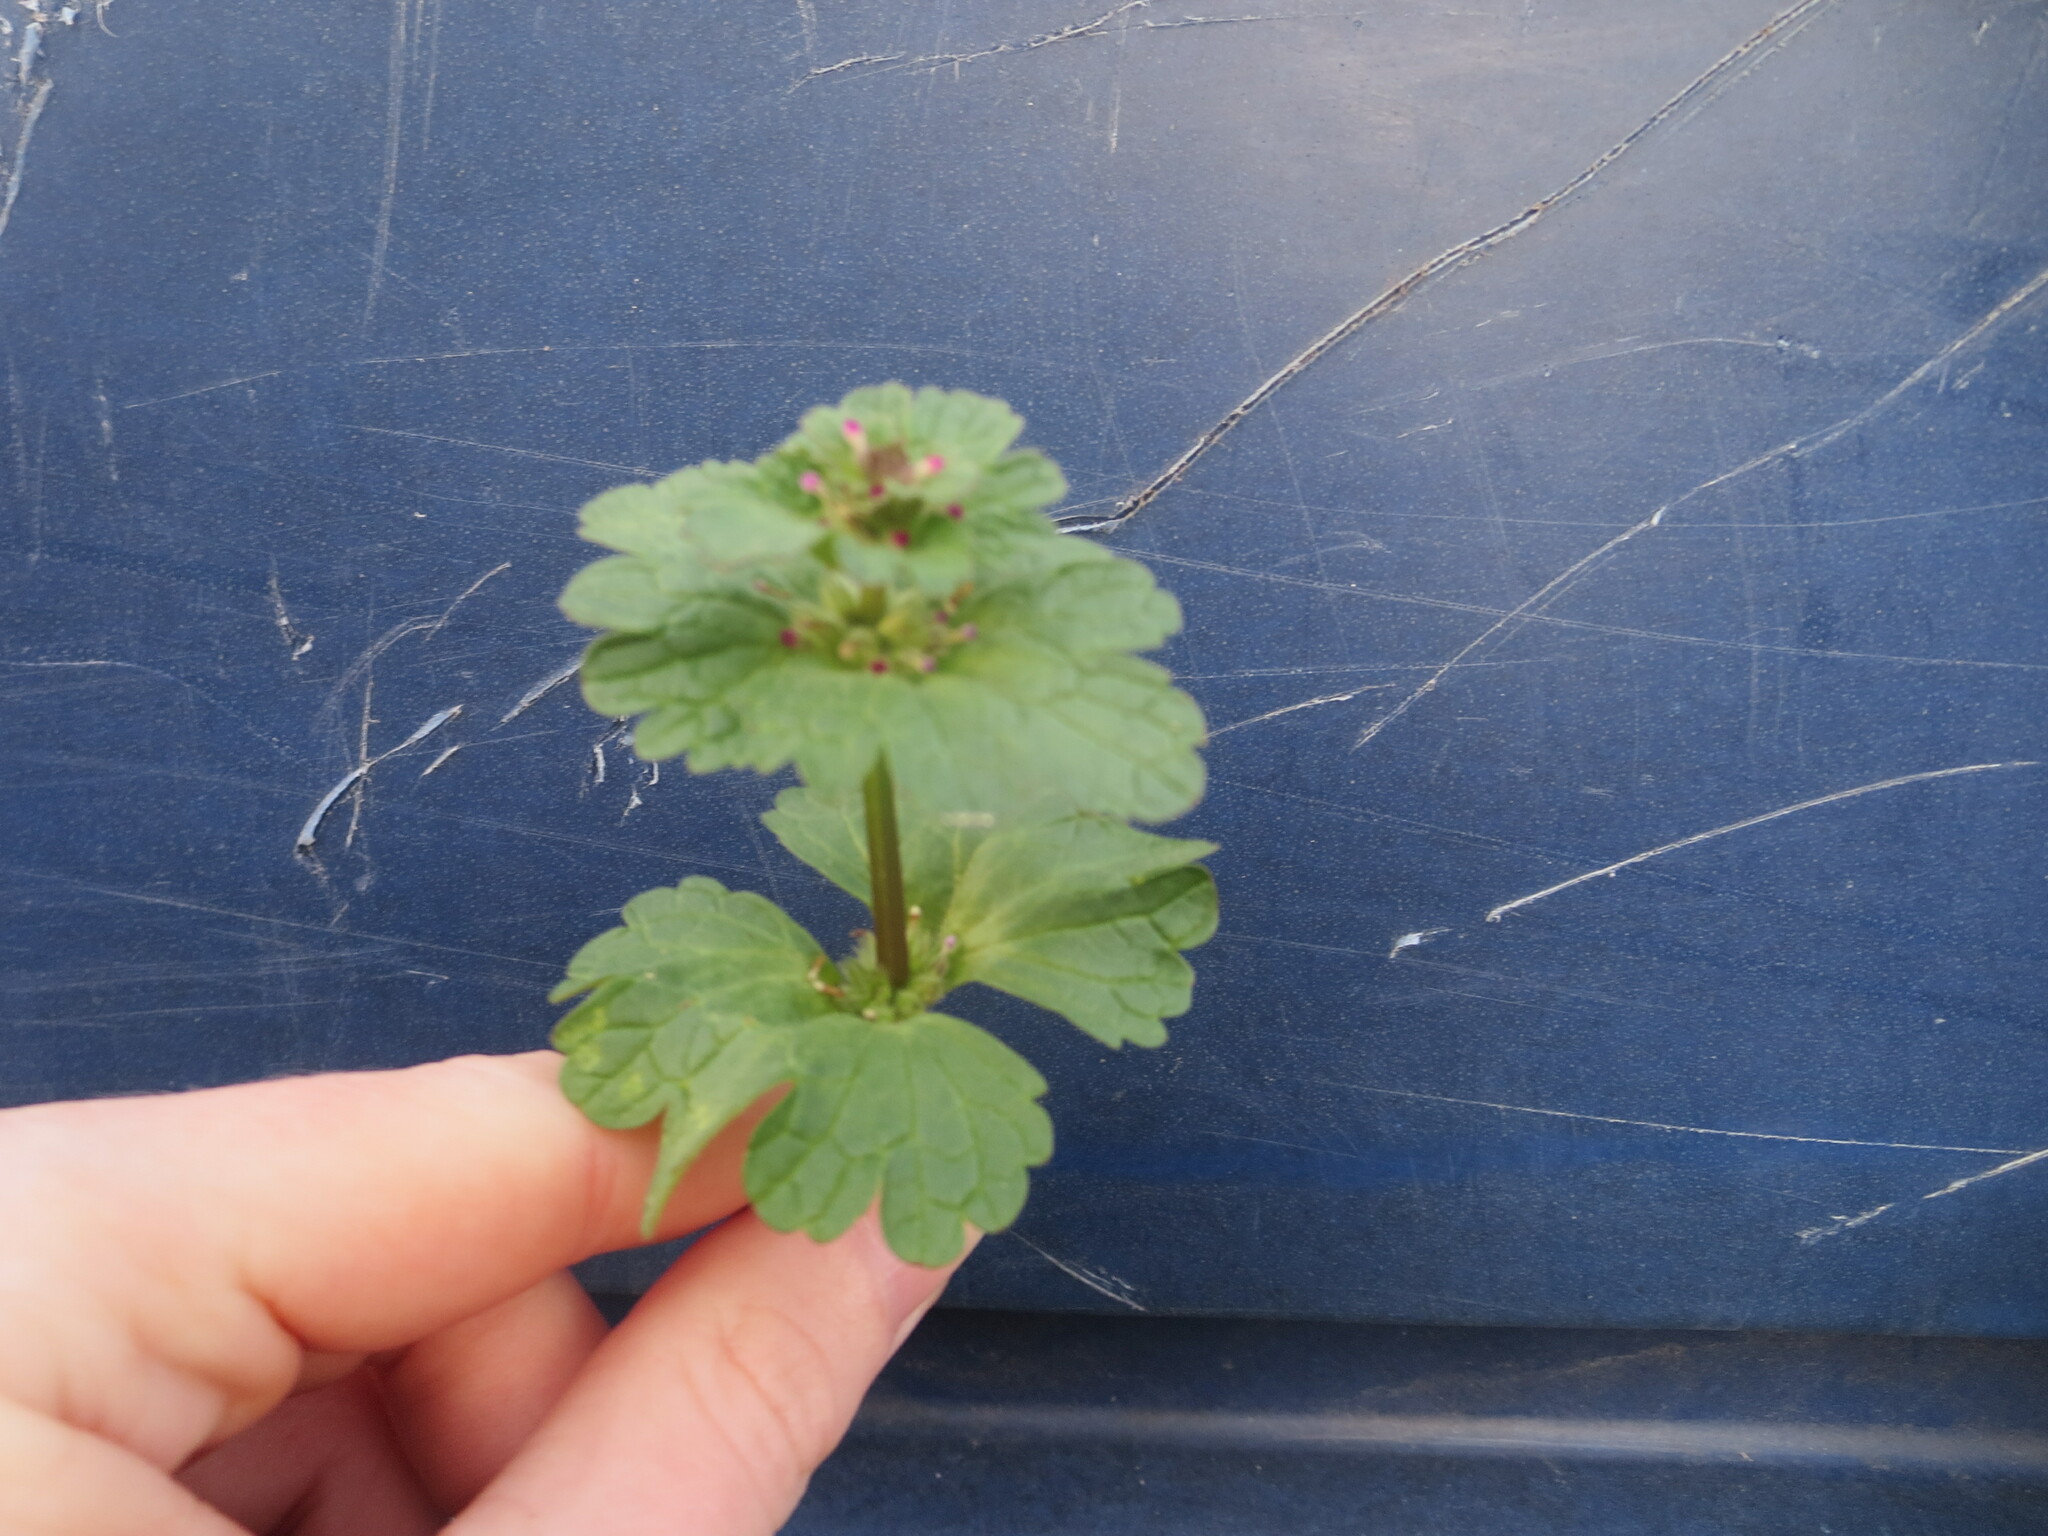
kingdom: Plantae
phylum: Tracheophyta
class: Magnoliopsida
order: Lamiales
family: Lamiaceae
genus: Lamium
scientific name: Lamium amplexicaule
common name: Henbit dead-nettle
